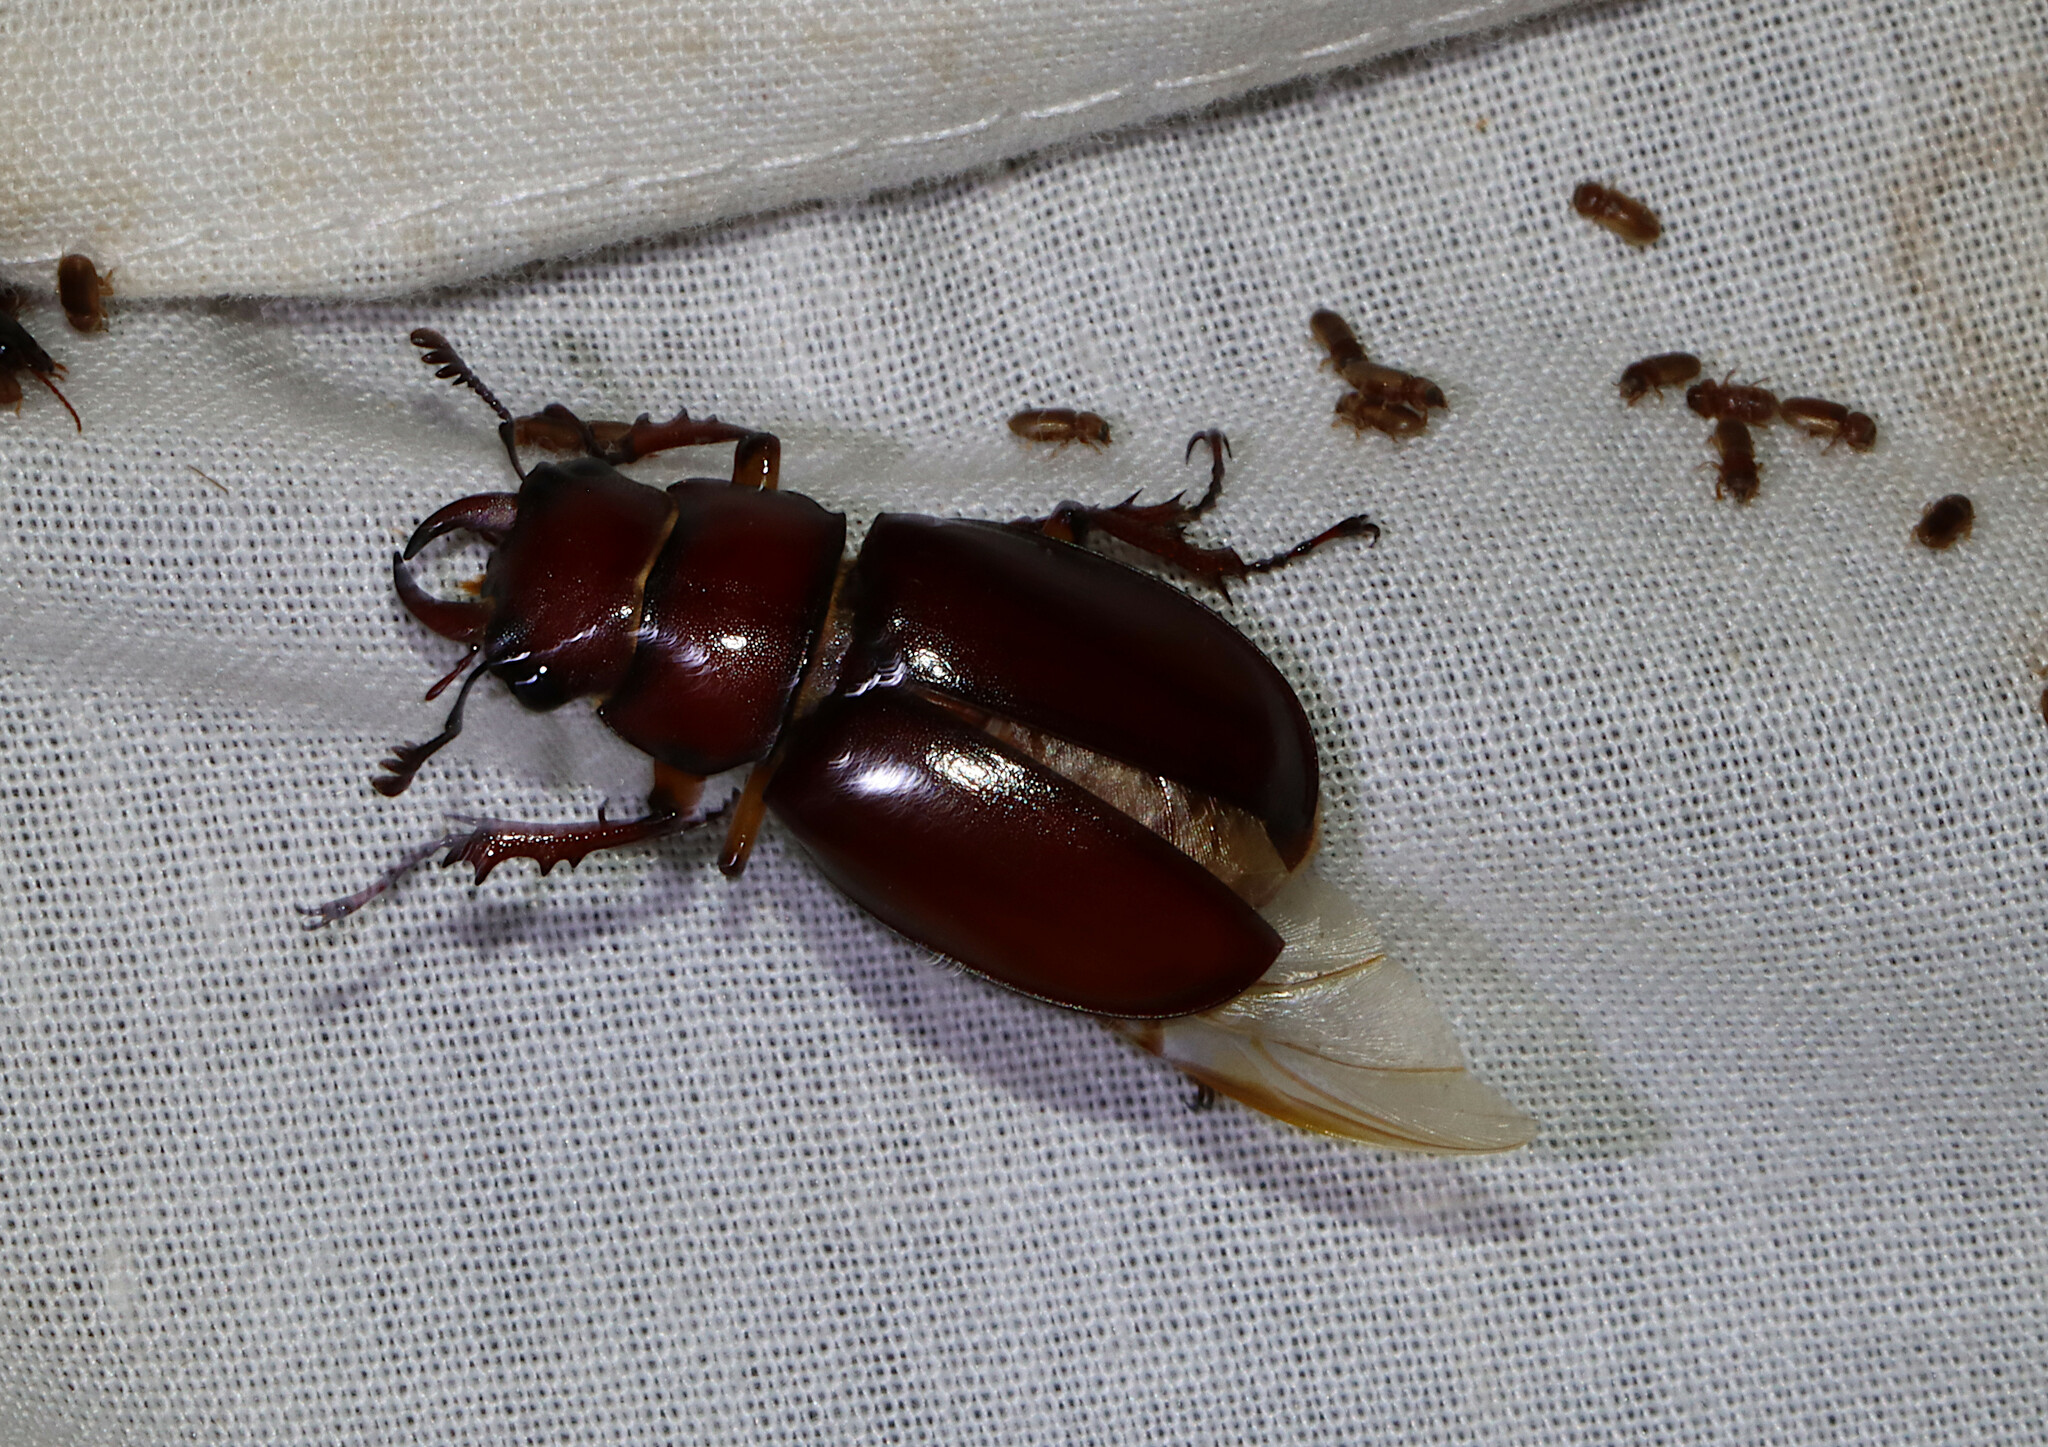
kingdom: Animalia
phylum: Arthropoda
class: Insecta
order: Coleoptera
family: Lucanidae
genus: Lucanus
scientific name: Lucanus capreolus
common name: Stag beetle
